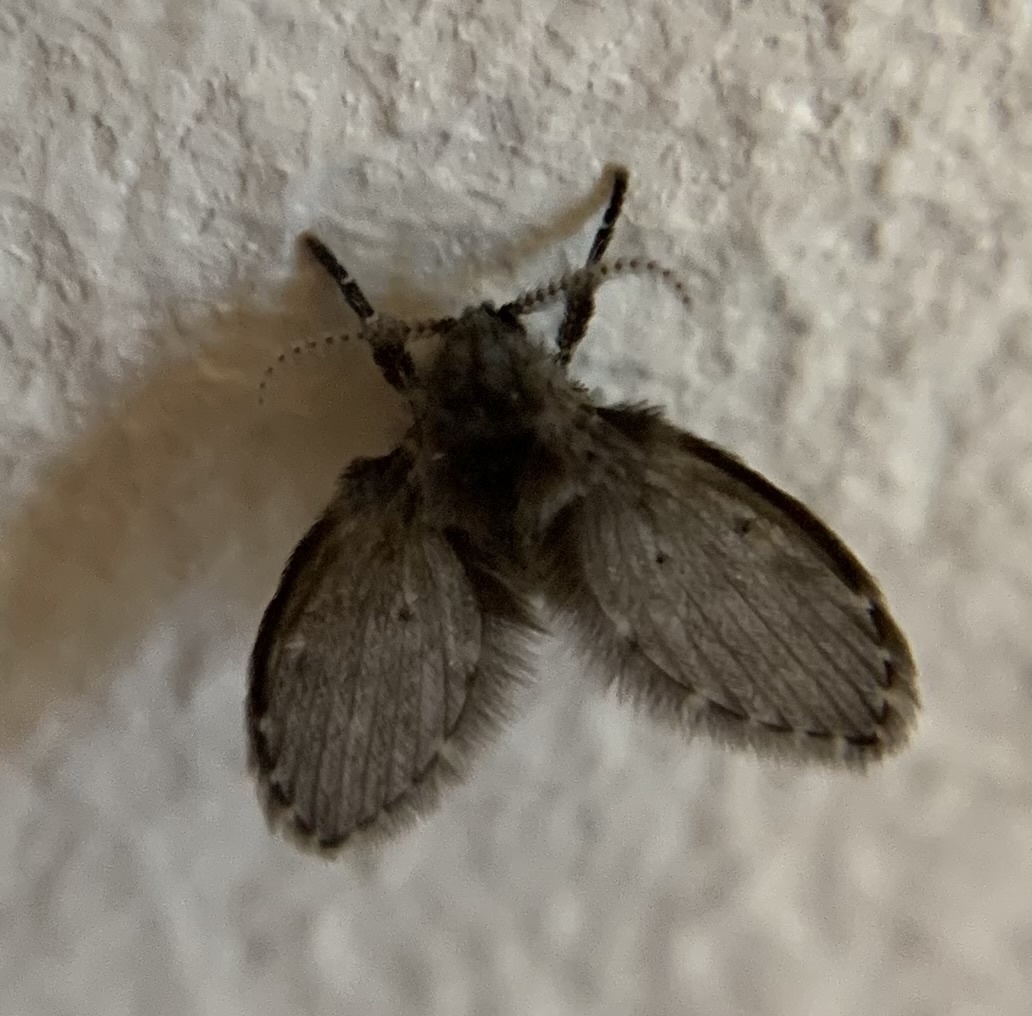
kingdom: Animalia
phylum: Arthropoda
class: Insecta
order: Diptera
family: Psychodidae
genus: Clogmia
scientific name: Clogmia albipunctatus
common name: White-spotted moth fly
